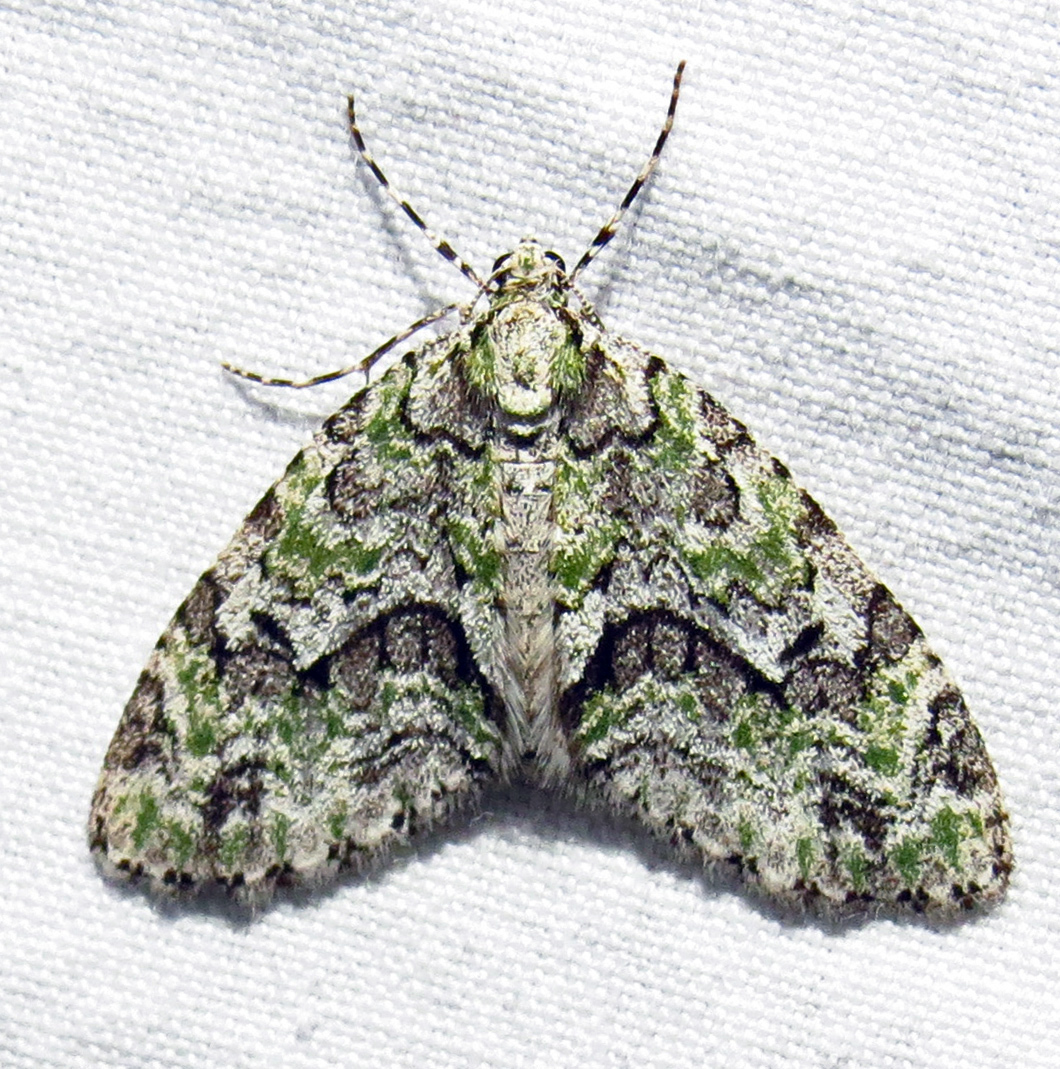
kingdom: Animalia
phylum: Arthropoda
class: Insecta
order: Lepidoptera
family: Geometridae
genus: Cladara
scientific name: Cladara limitaria
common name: Mottled gray carpet
